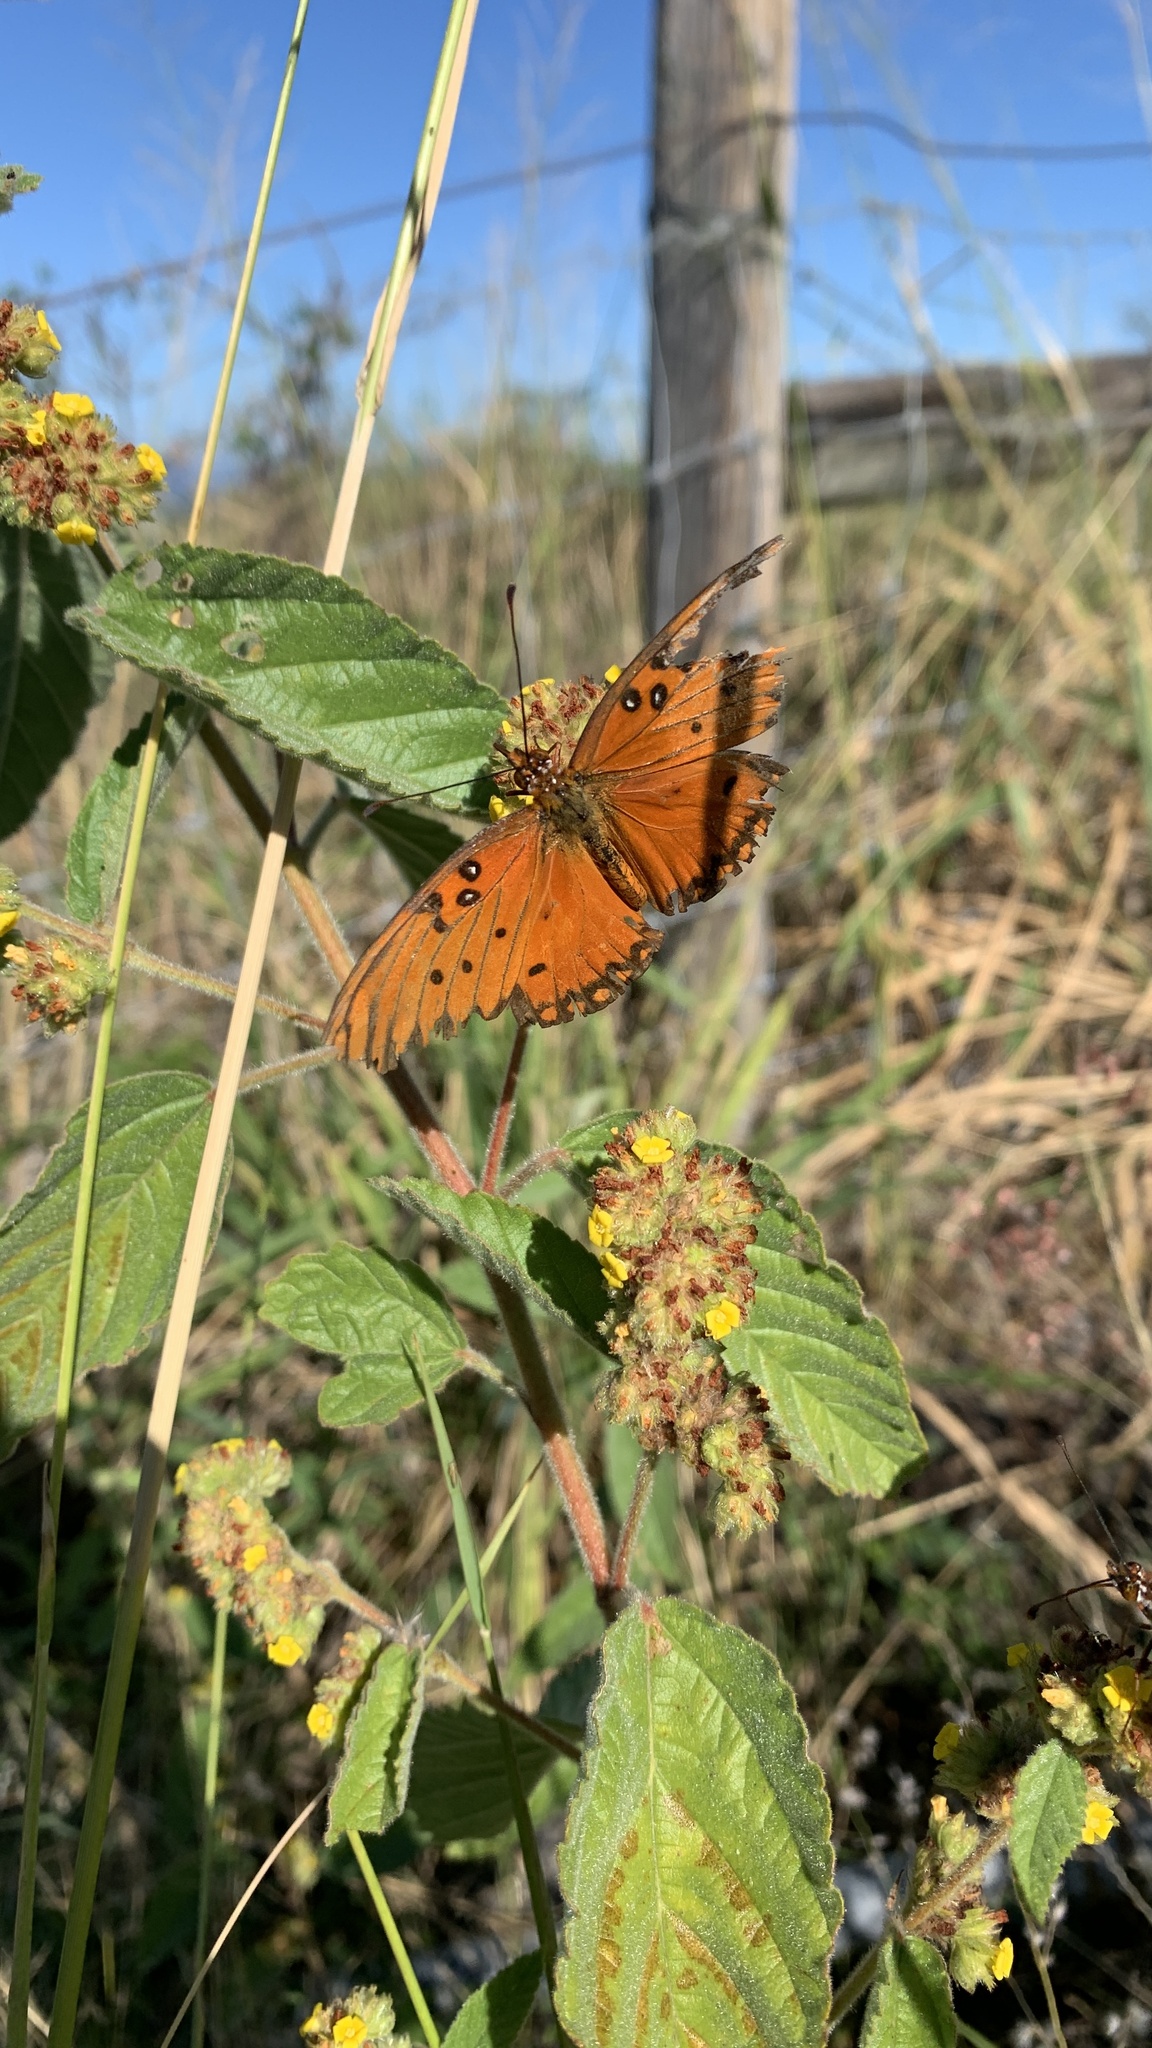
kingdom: Animalia
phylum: Arthropoda
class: Insecta
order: Lepidoptera
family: Nymphalidae
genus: Dione
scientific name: Dione vanillae
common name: Gulf fritillary
